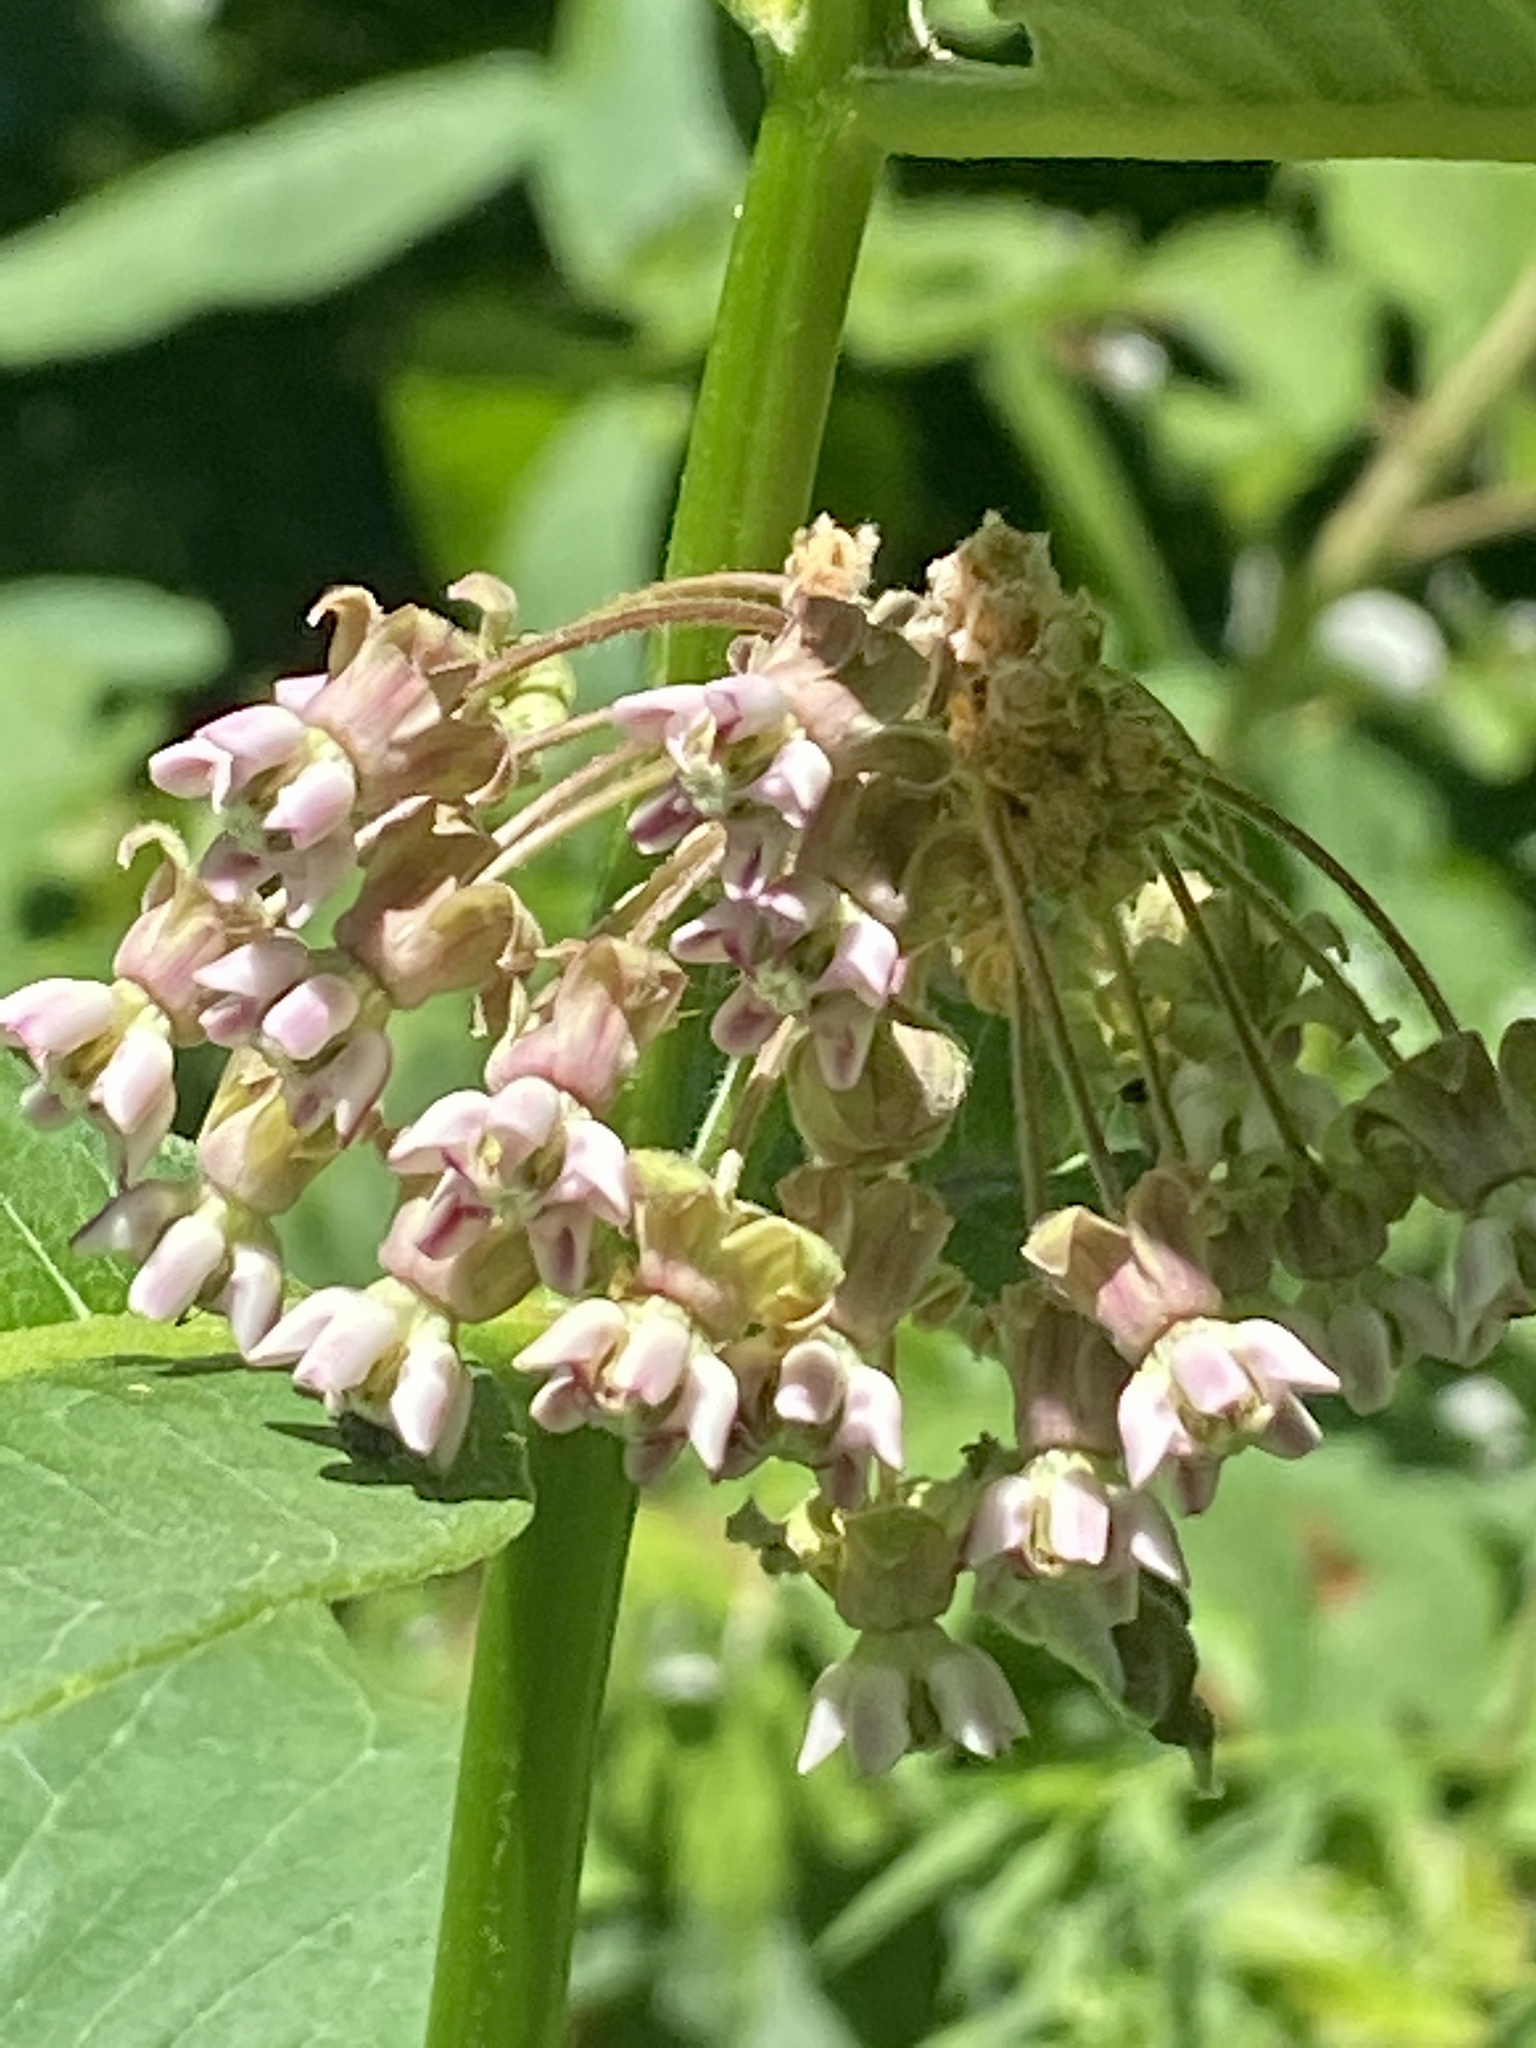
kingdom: Plantae
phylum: Tracheophyta
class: Magnoliopsida
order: Gentianales
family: Apocynaceae
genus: Asclepias
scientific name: Asclepias syriaca
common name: Common milkweed
